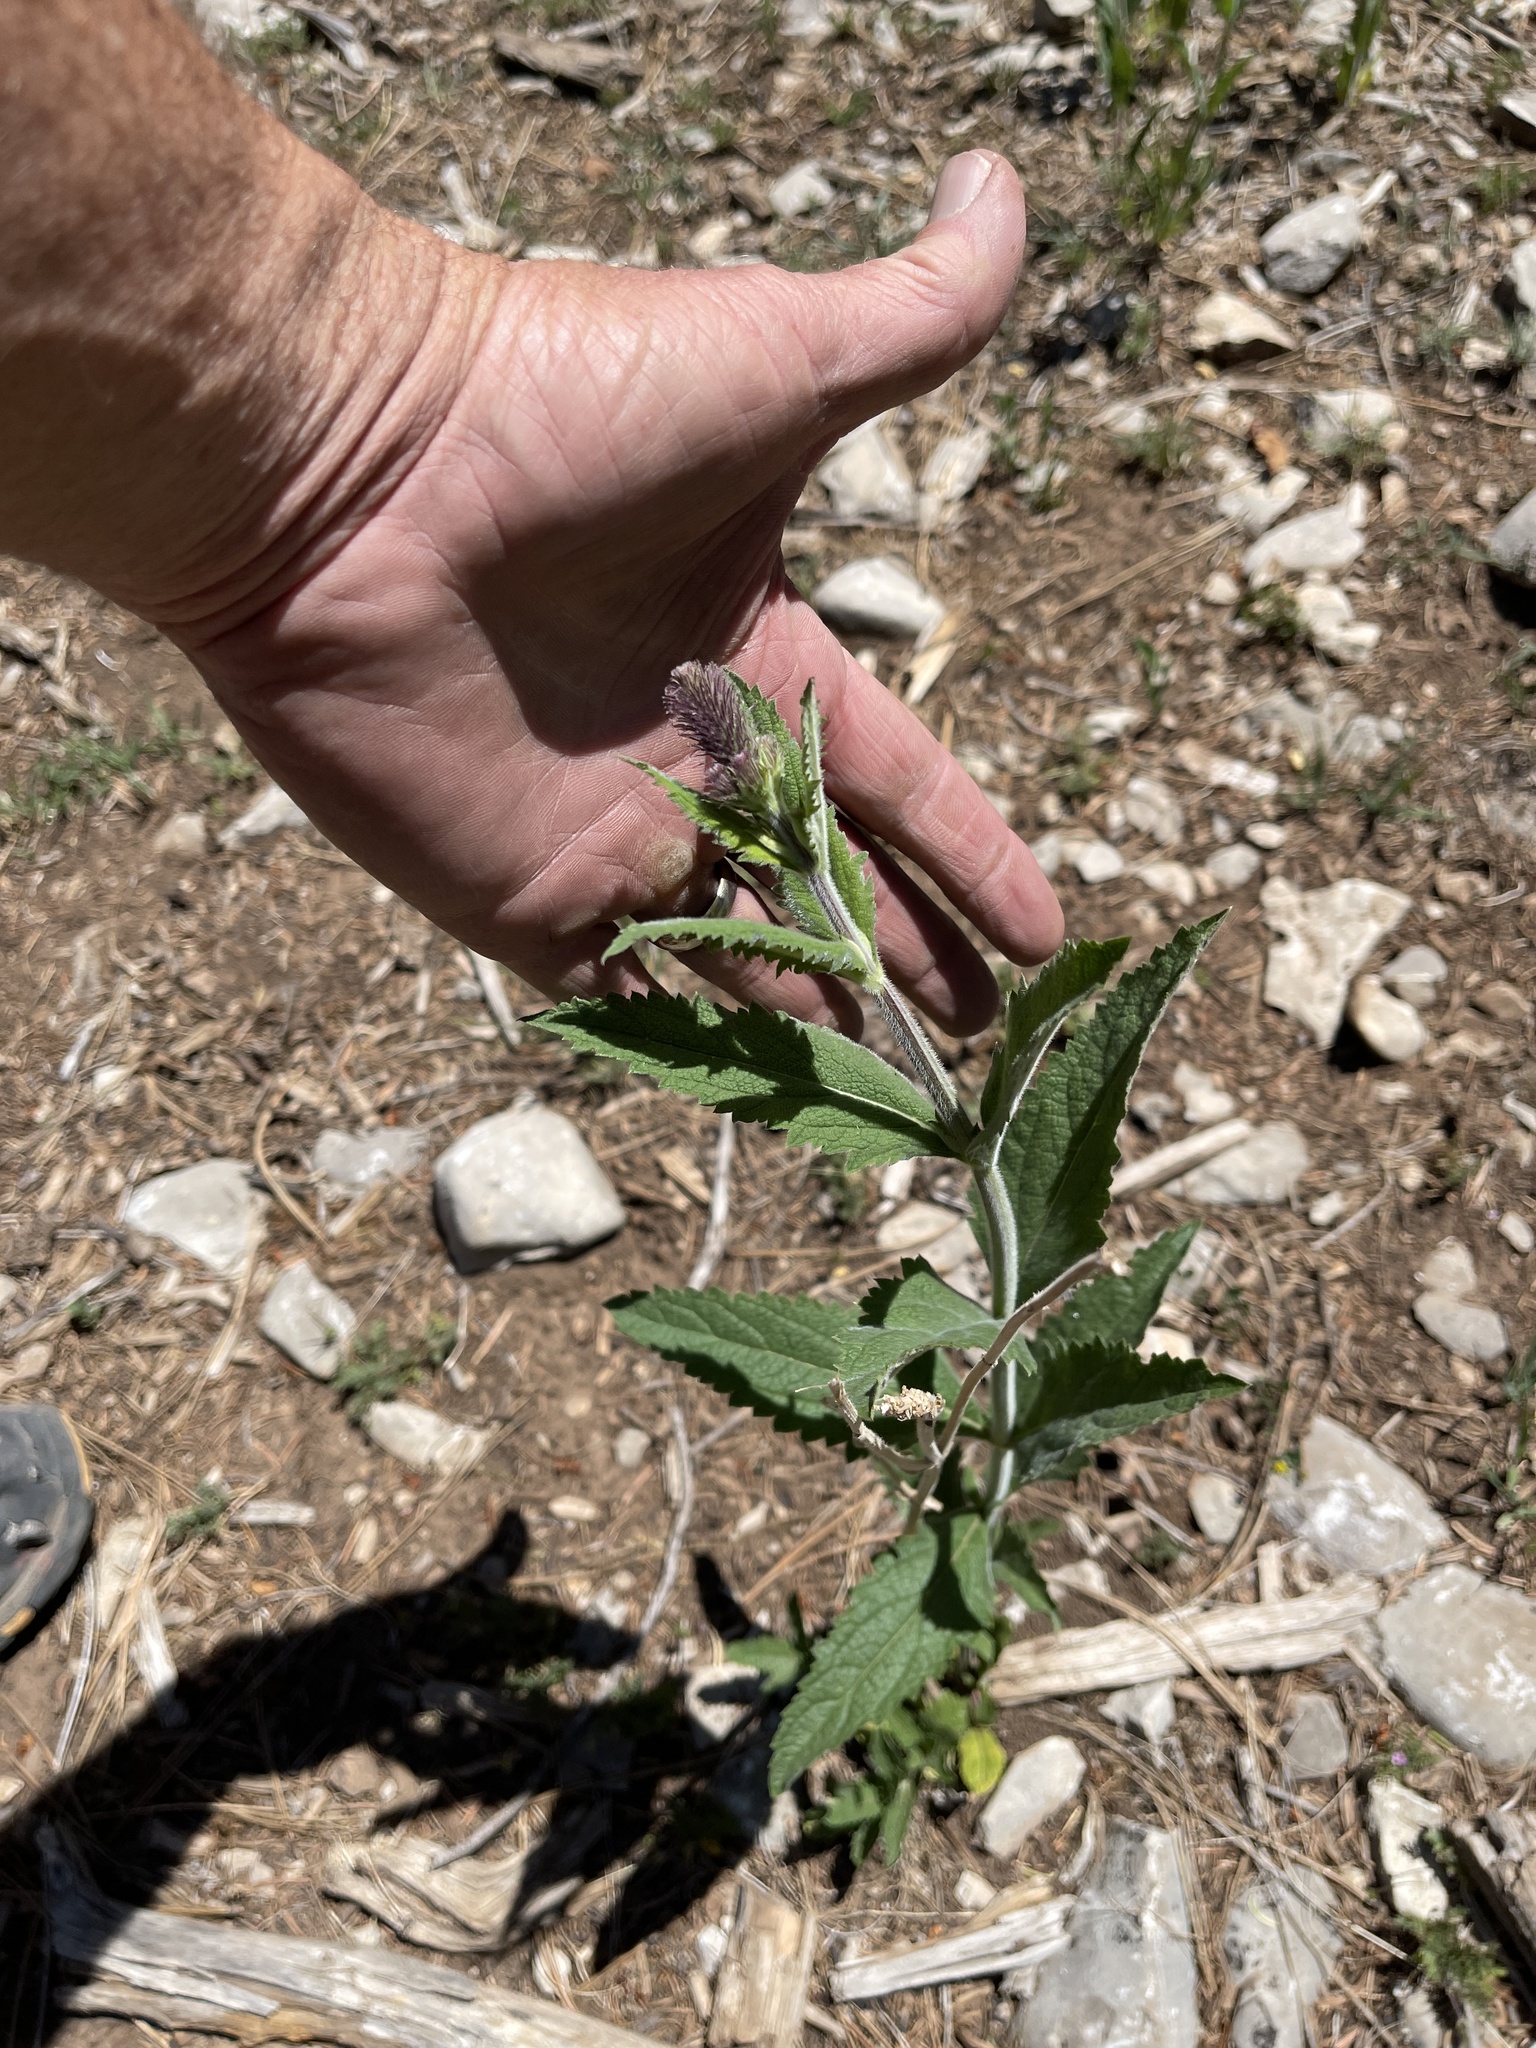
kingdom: Plantae
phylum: Tracheophyta
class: Magnoliopsida
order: Lamiales
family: Verbenaceae
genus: Verbena
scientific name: Verbena macdougalii
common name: New mexico vervain
